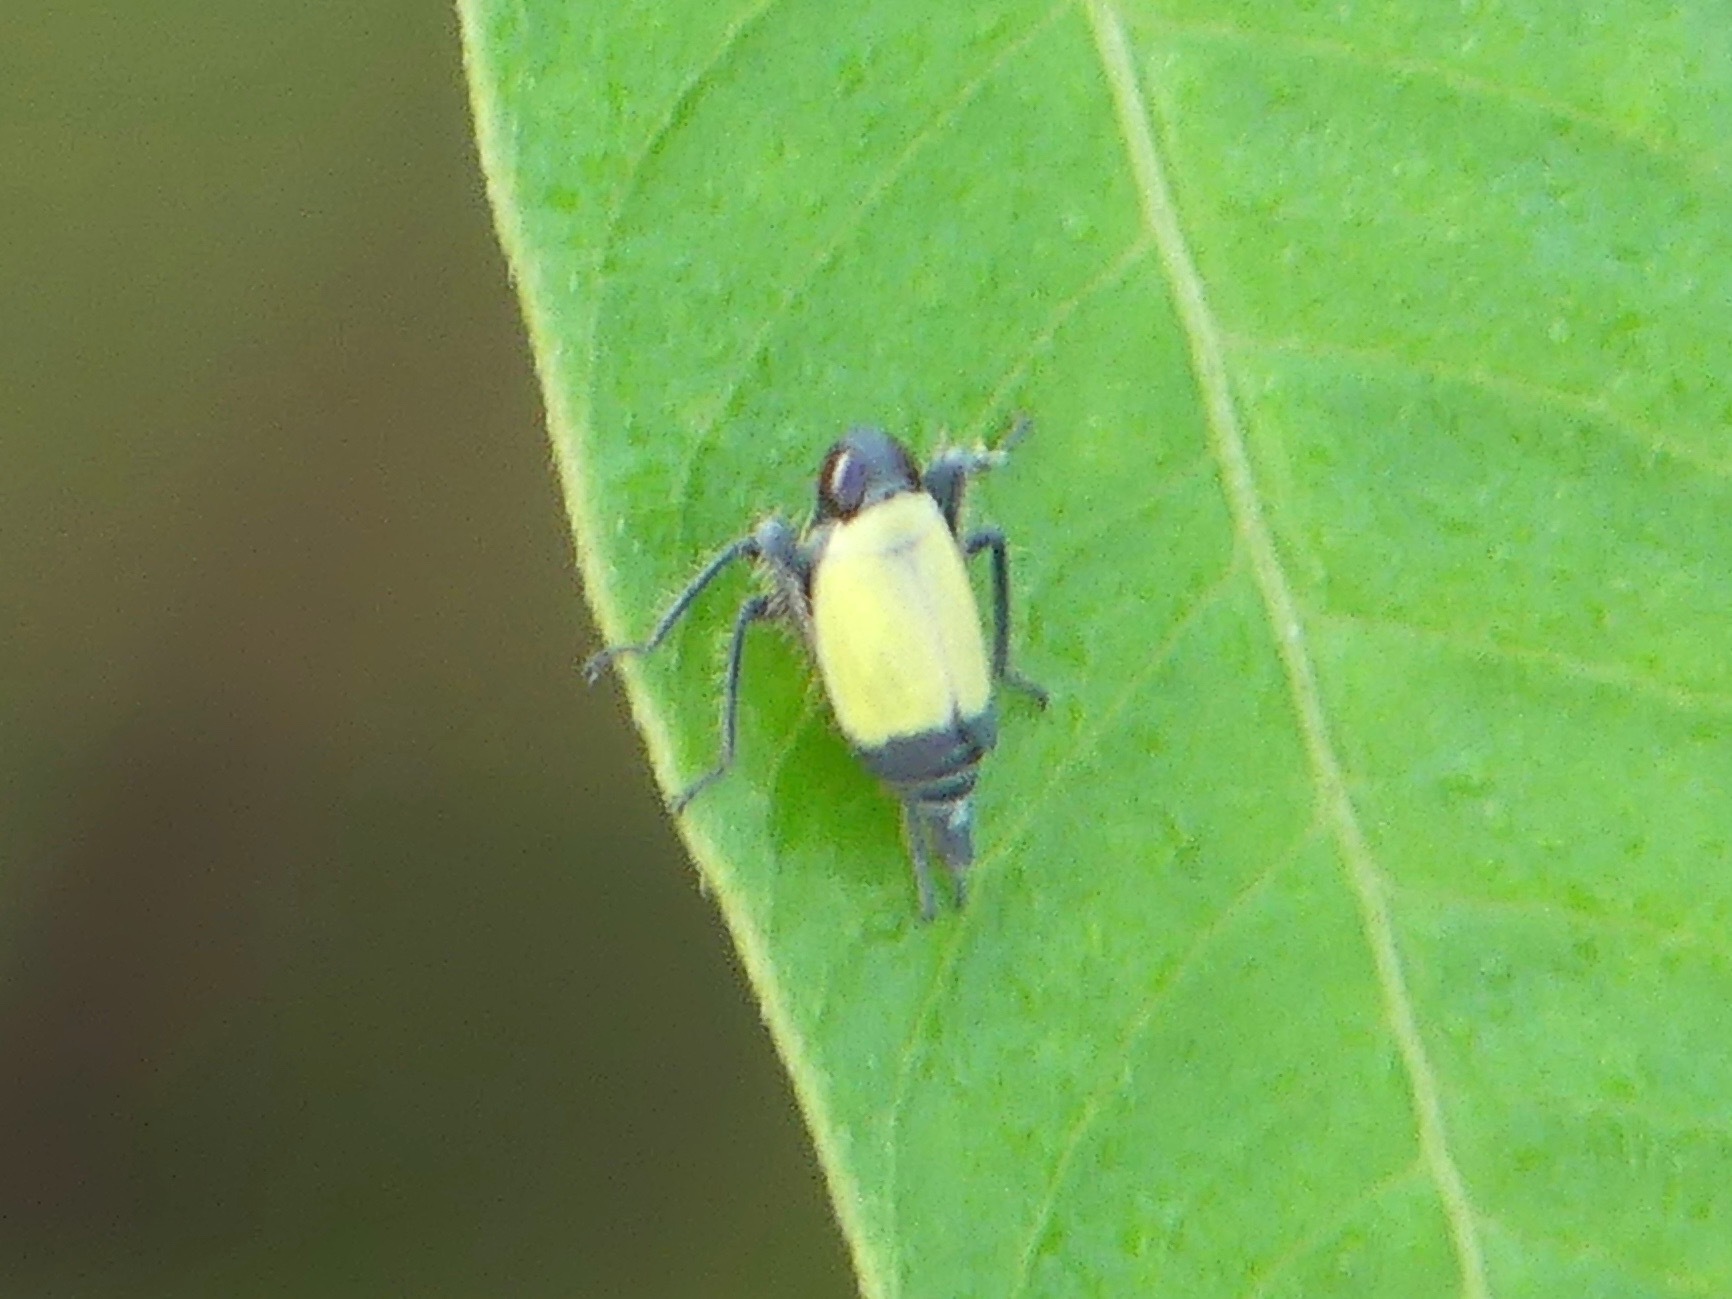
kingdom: Animalia
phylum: Arthropoda
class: Insecta
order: Hemiptera
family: Cicadellidae
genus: Tinobregmus
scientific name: Tinobregmus vittatus
